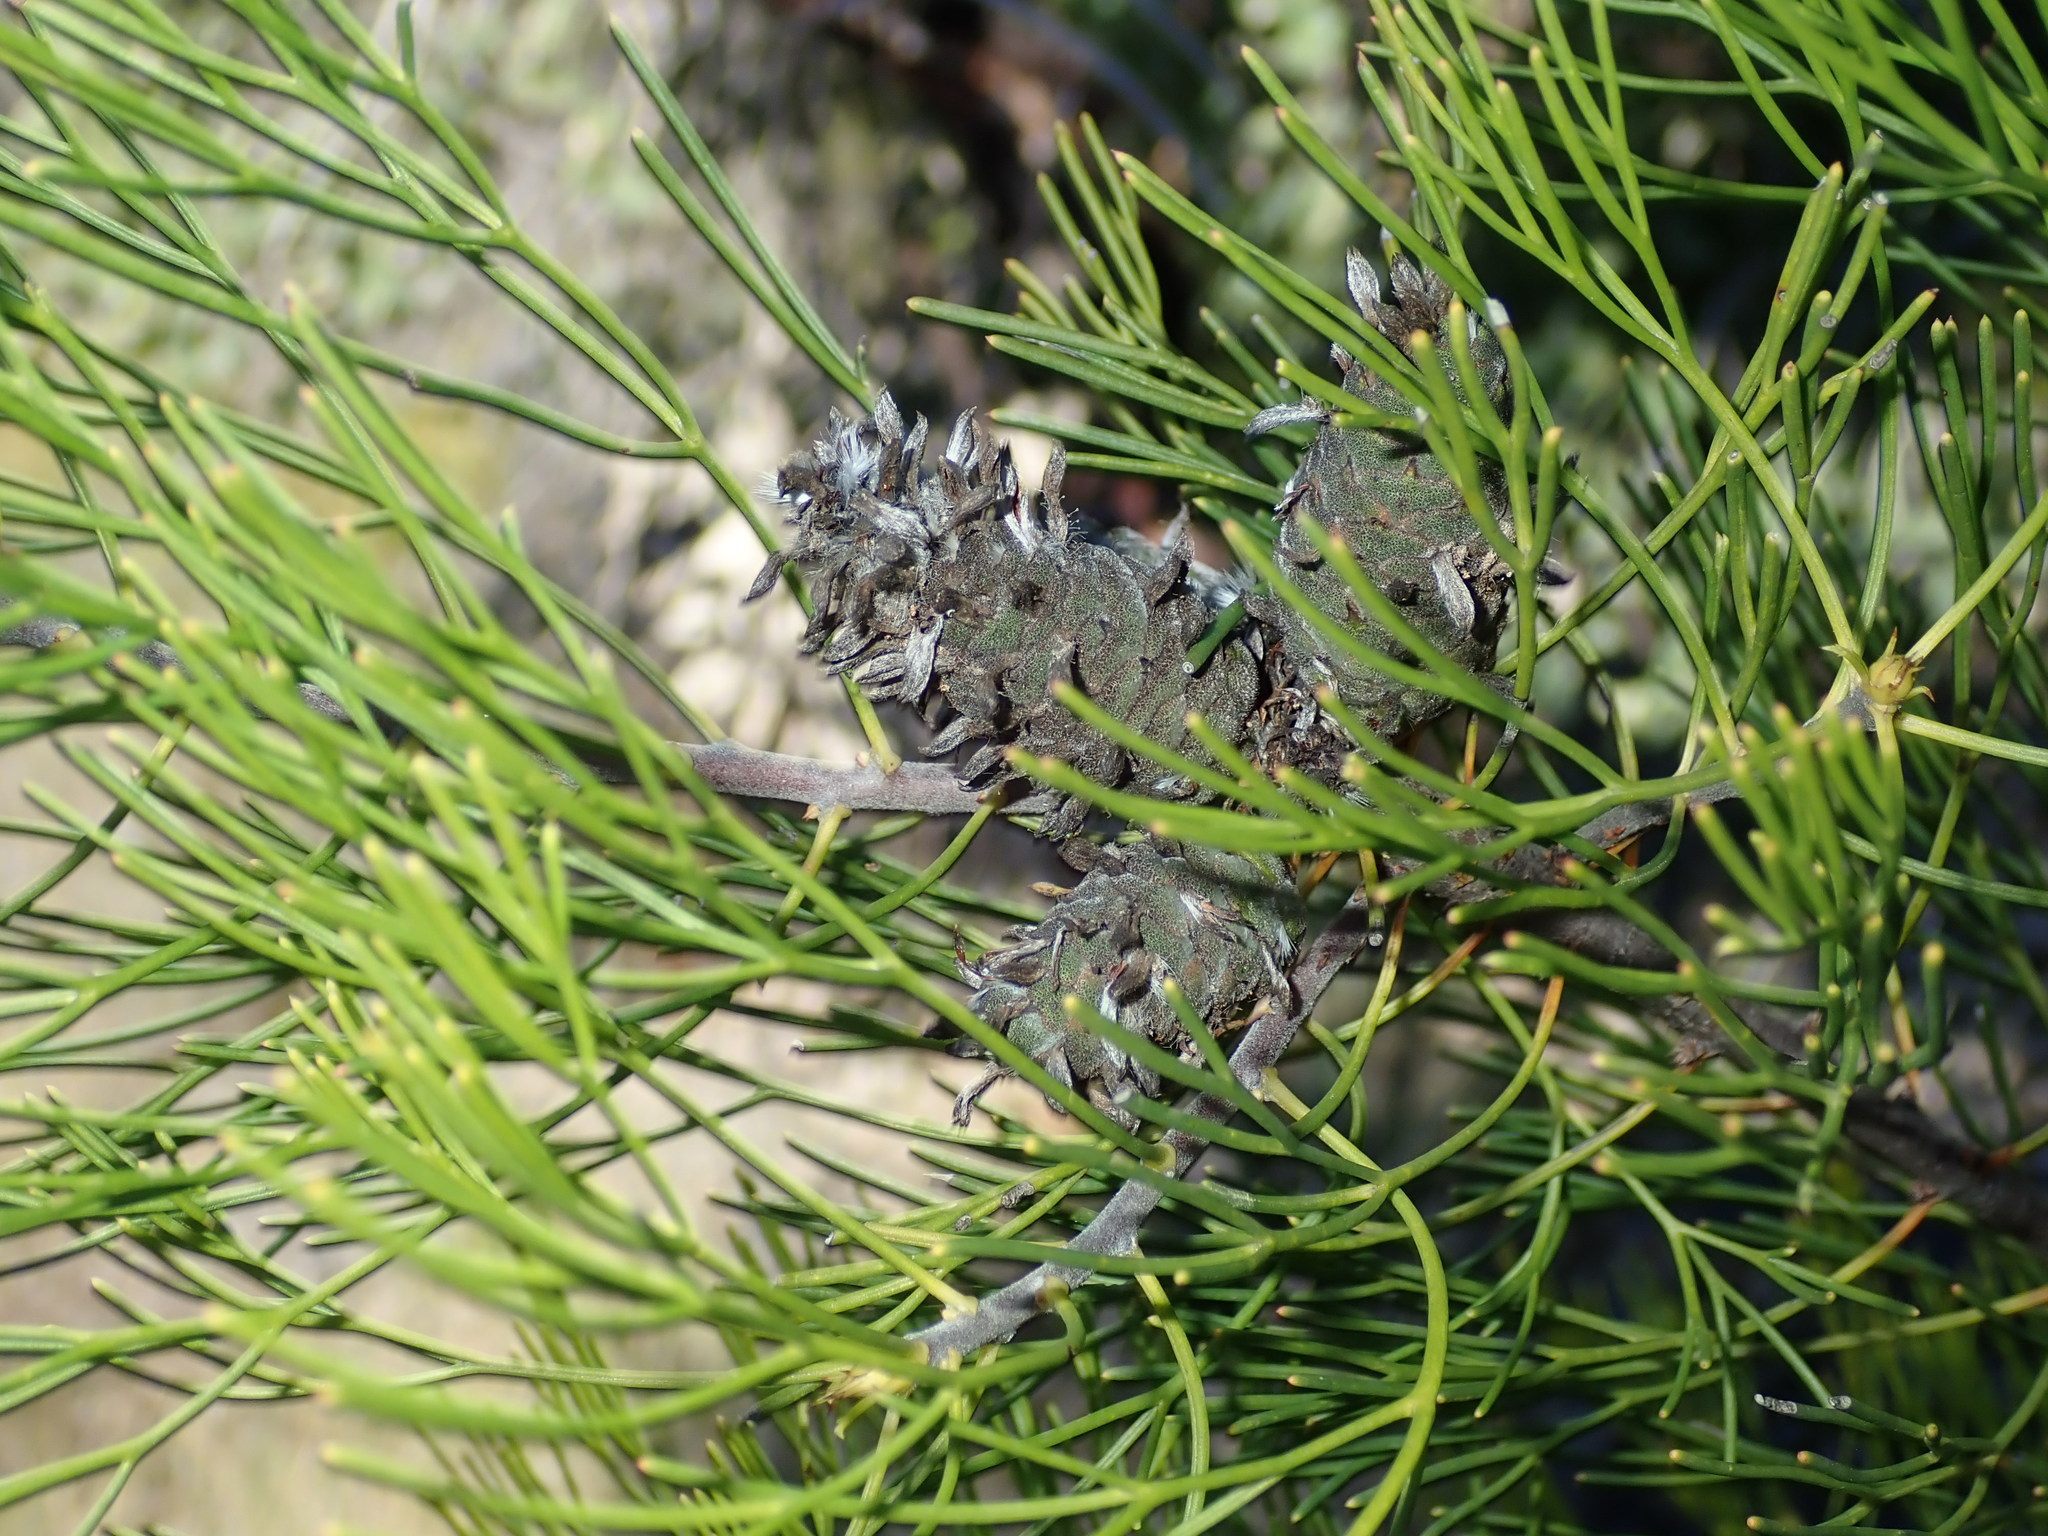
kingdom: Plantae
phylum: Tracheophyta
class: Magnoliopsida
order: Proteales
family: Proteaceae
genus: Petrophile
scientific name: Petrophile pulchella
